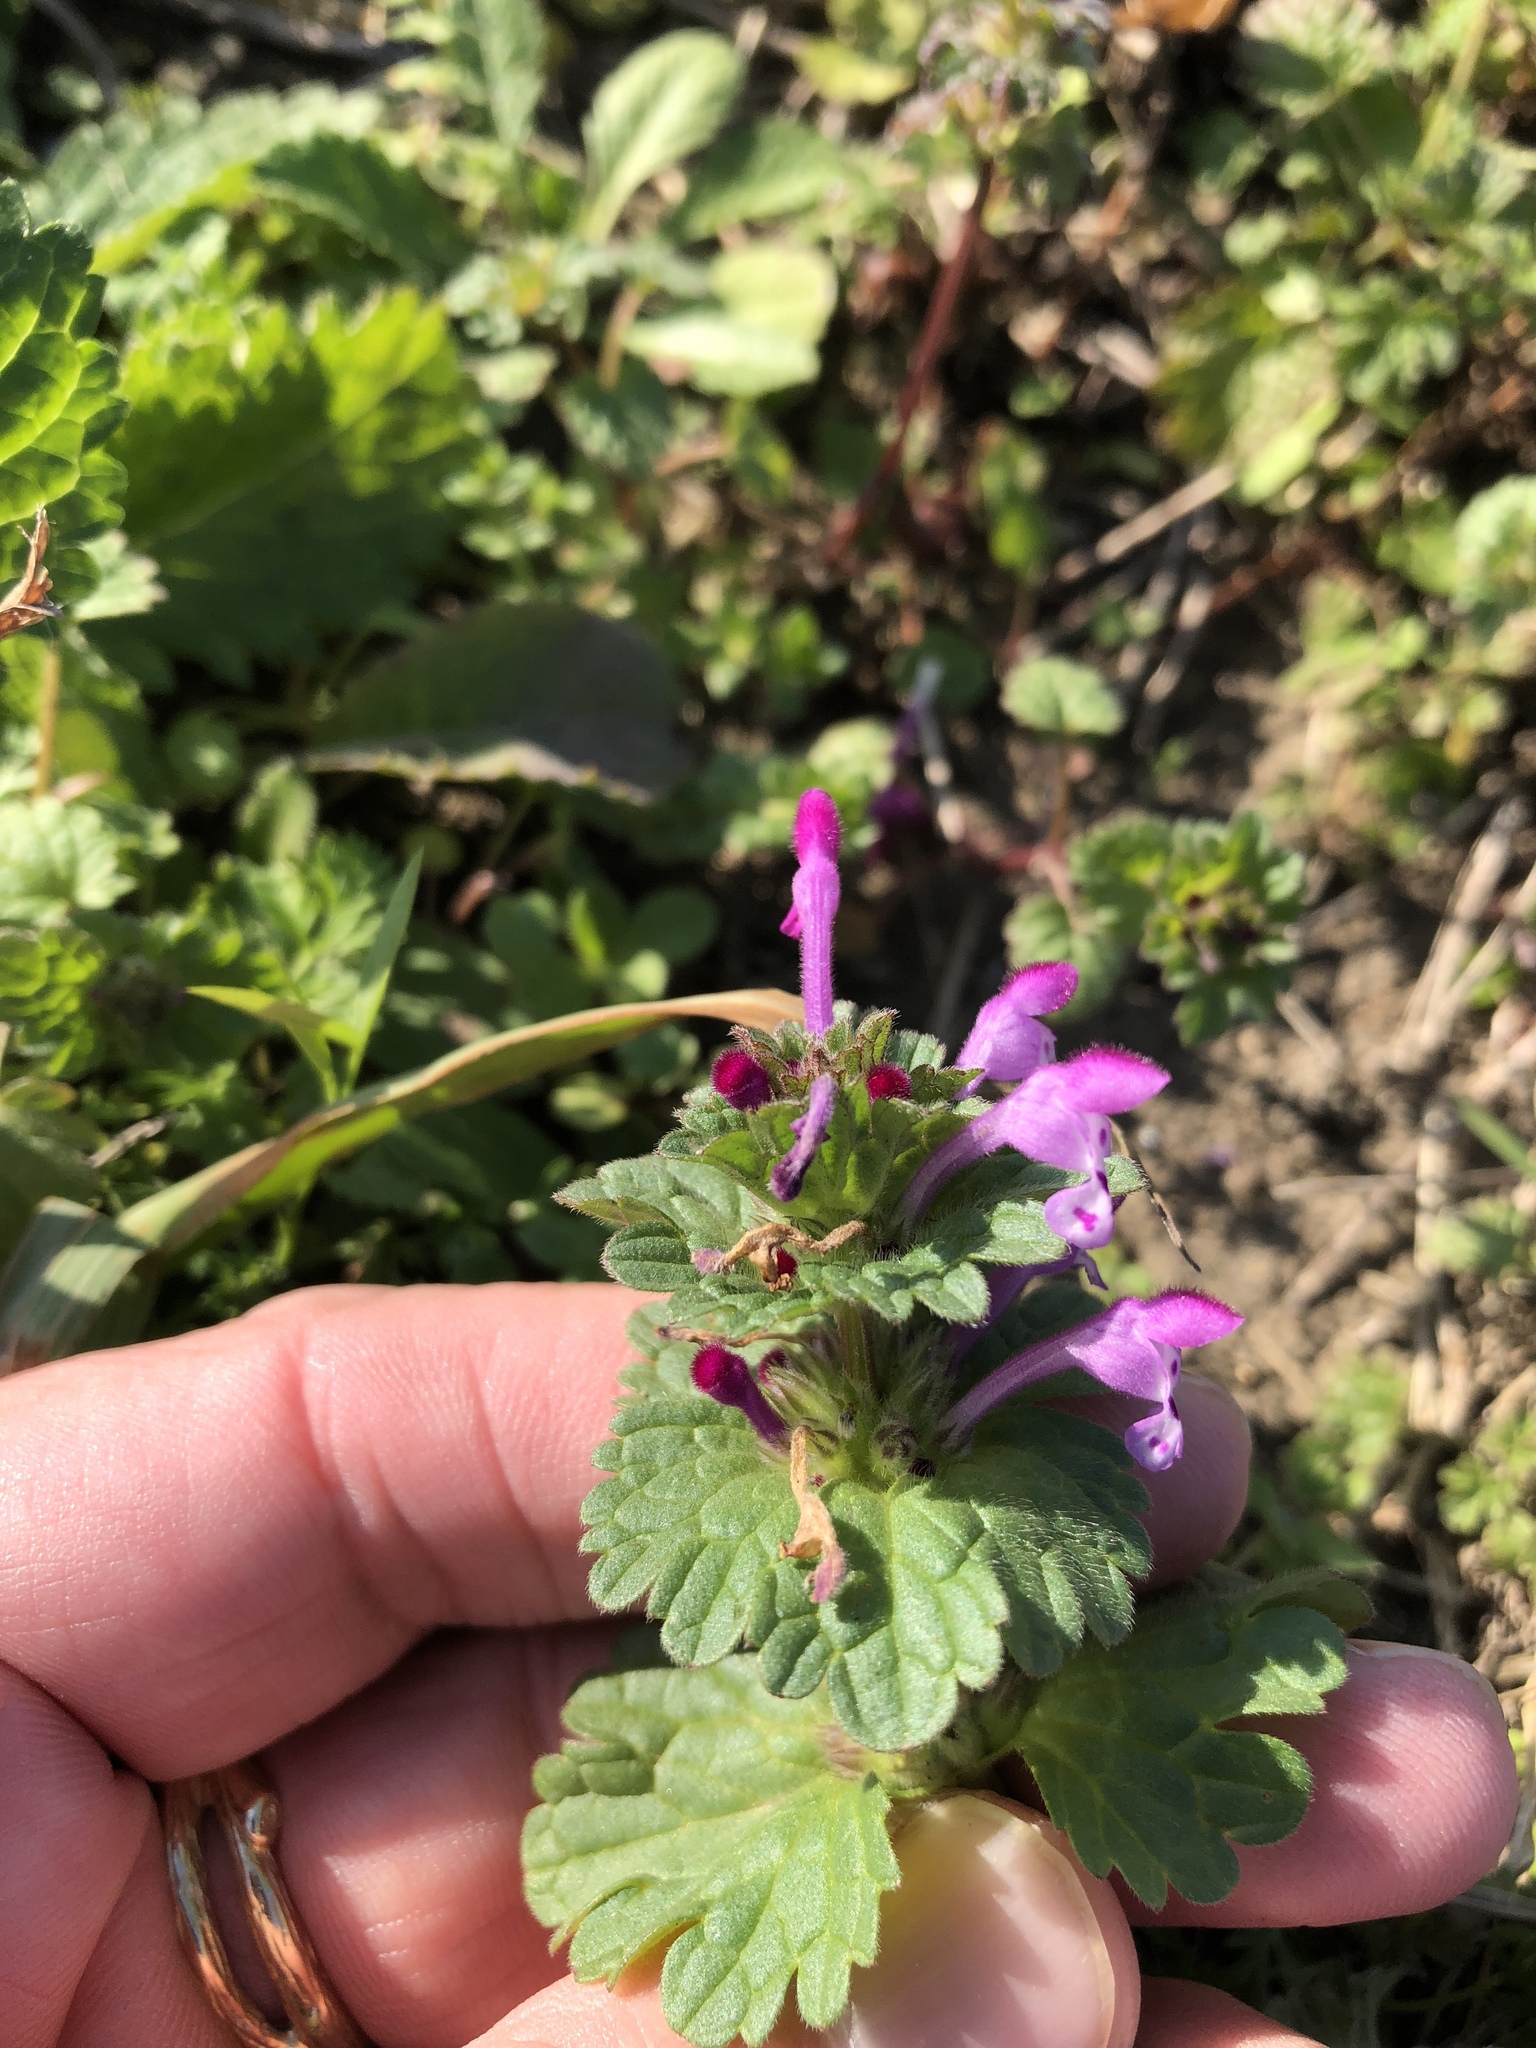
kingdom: Plantae
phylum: Tracheophyta
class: Magnoliopsida
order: Lamiales
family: Lamiaceae
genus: Lamium
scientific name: Lamium amplexicaule
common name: Henbit dead-nettle
